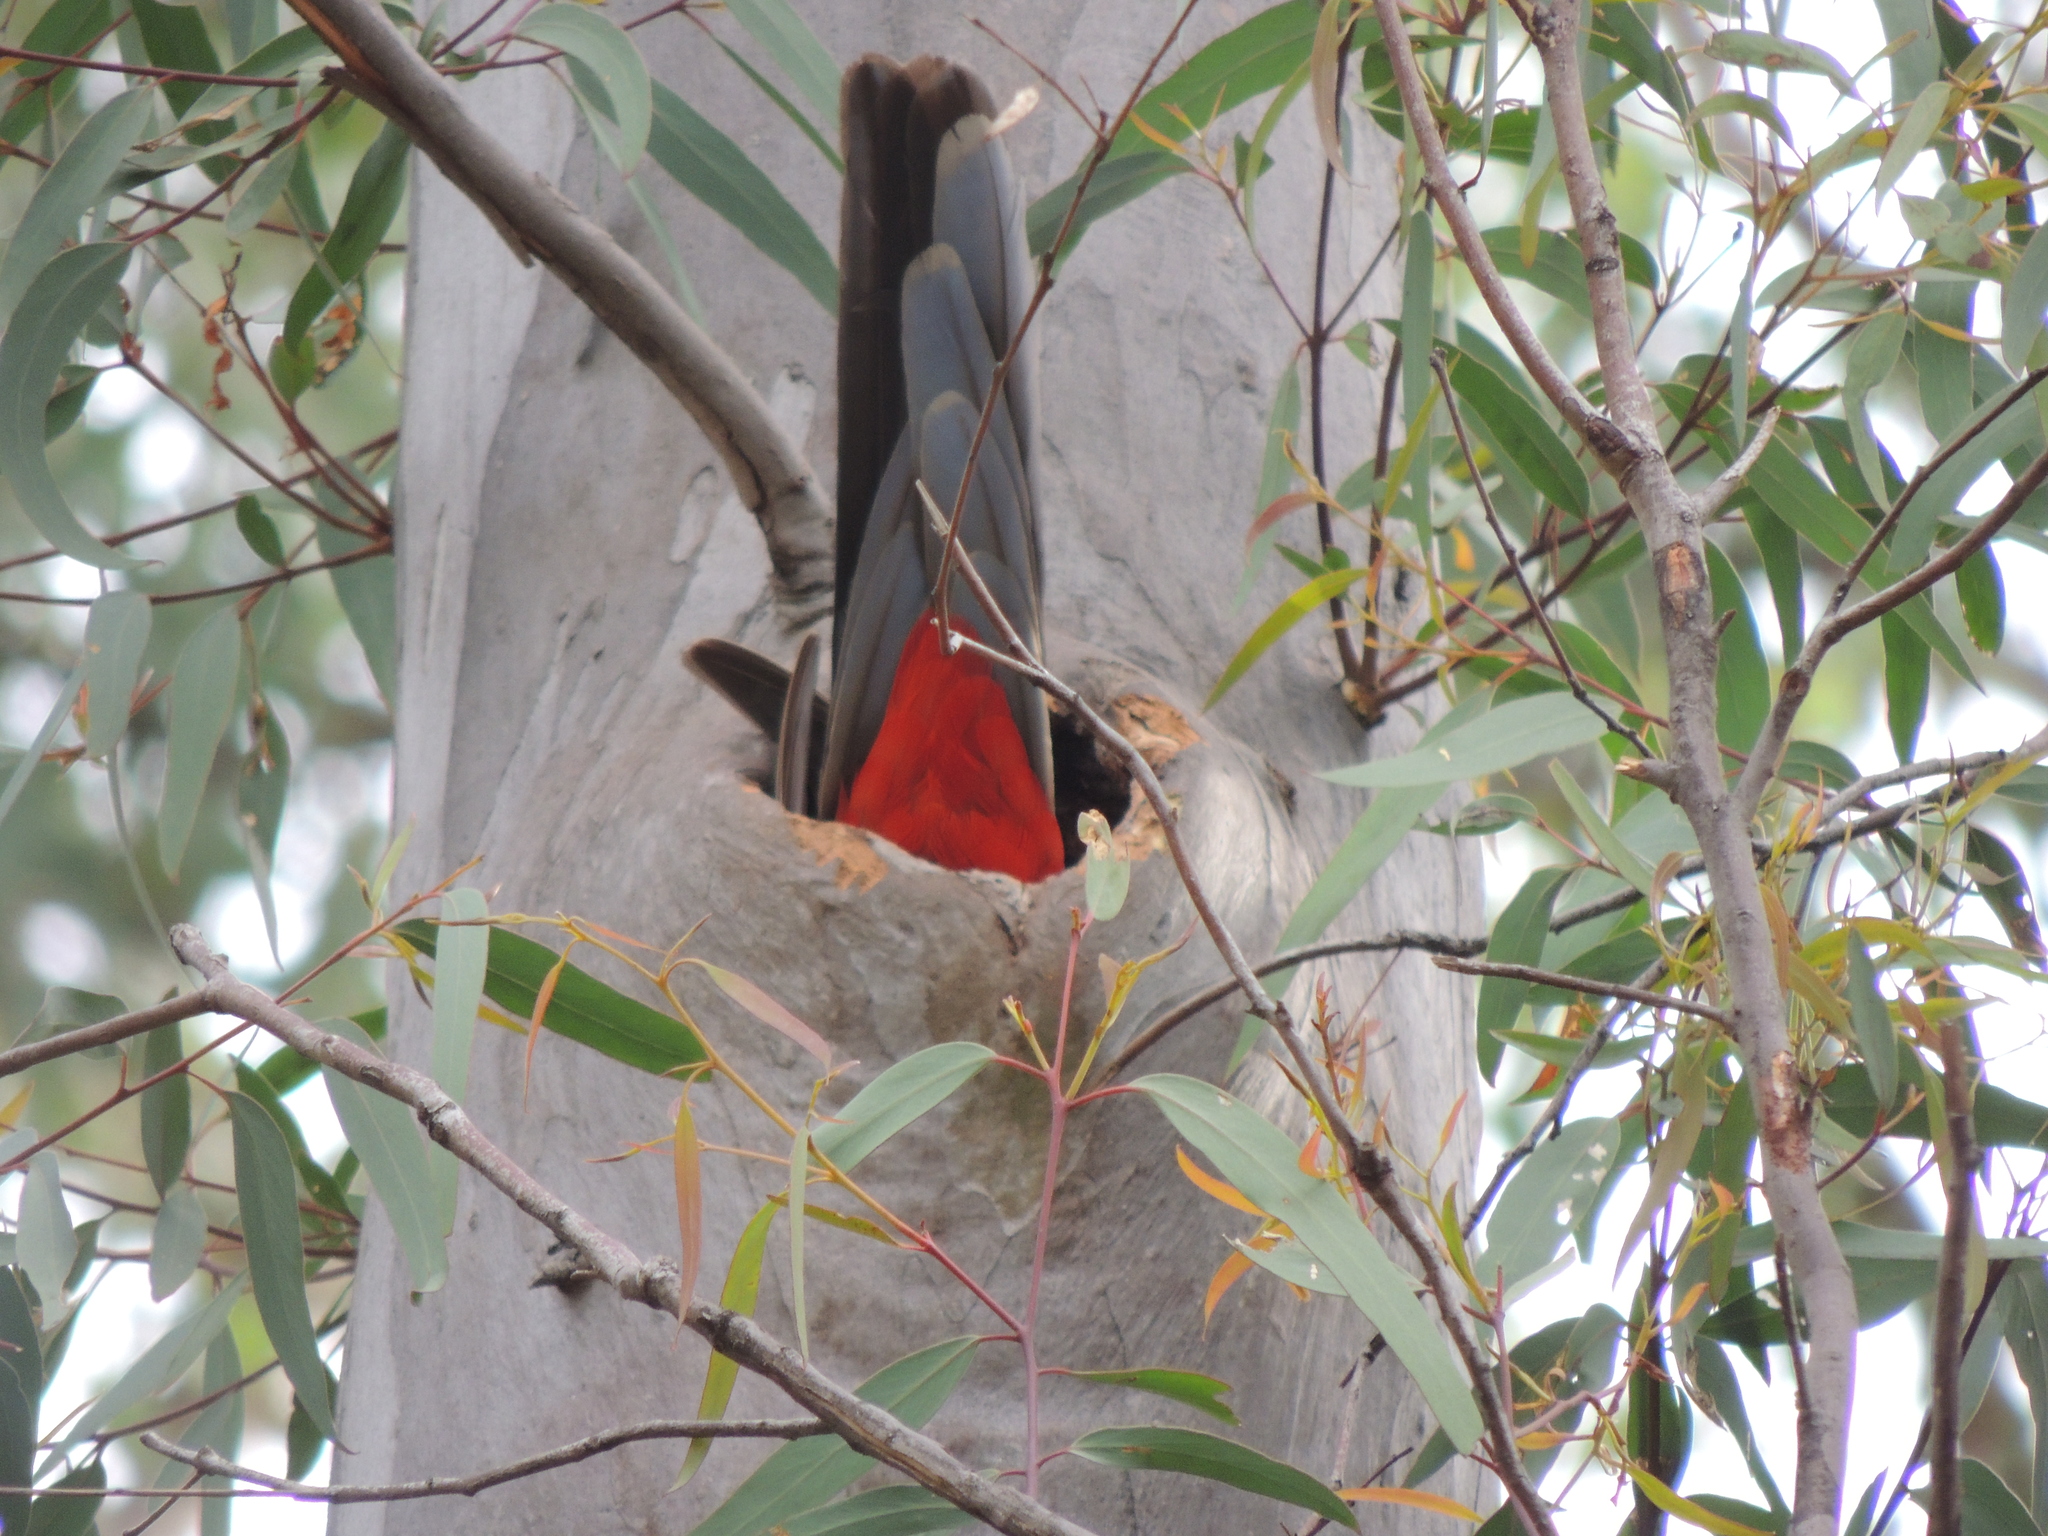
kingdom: Animalia
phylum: Chordata
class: Aves
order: Psittaciformes
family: Psittacidae
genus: Platycercus
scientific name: Platycercus elegans
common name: Crimson rosella
